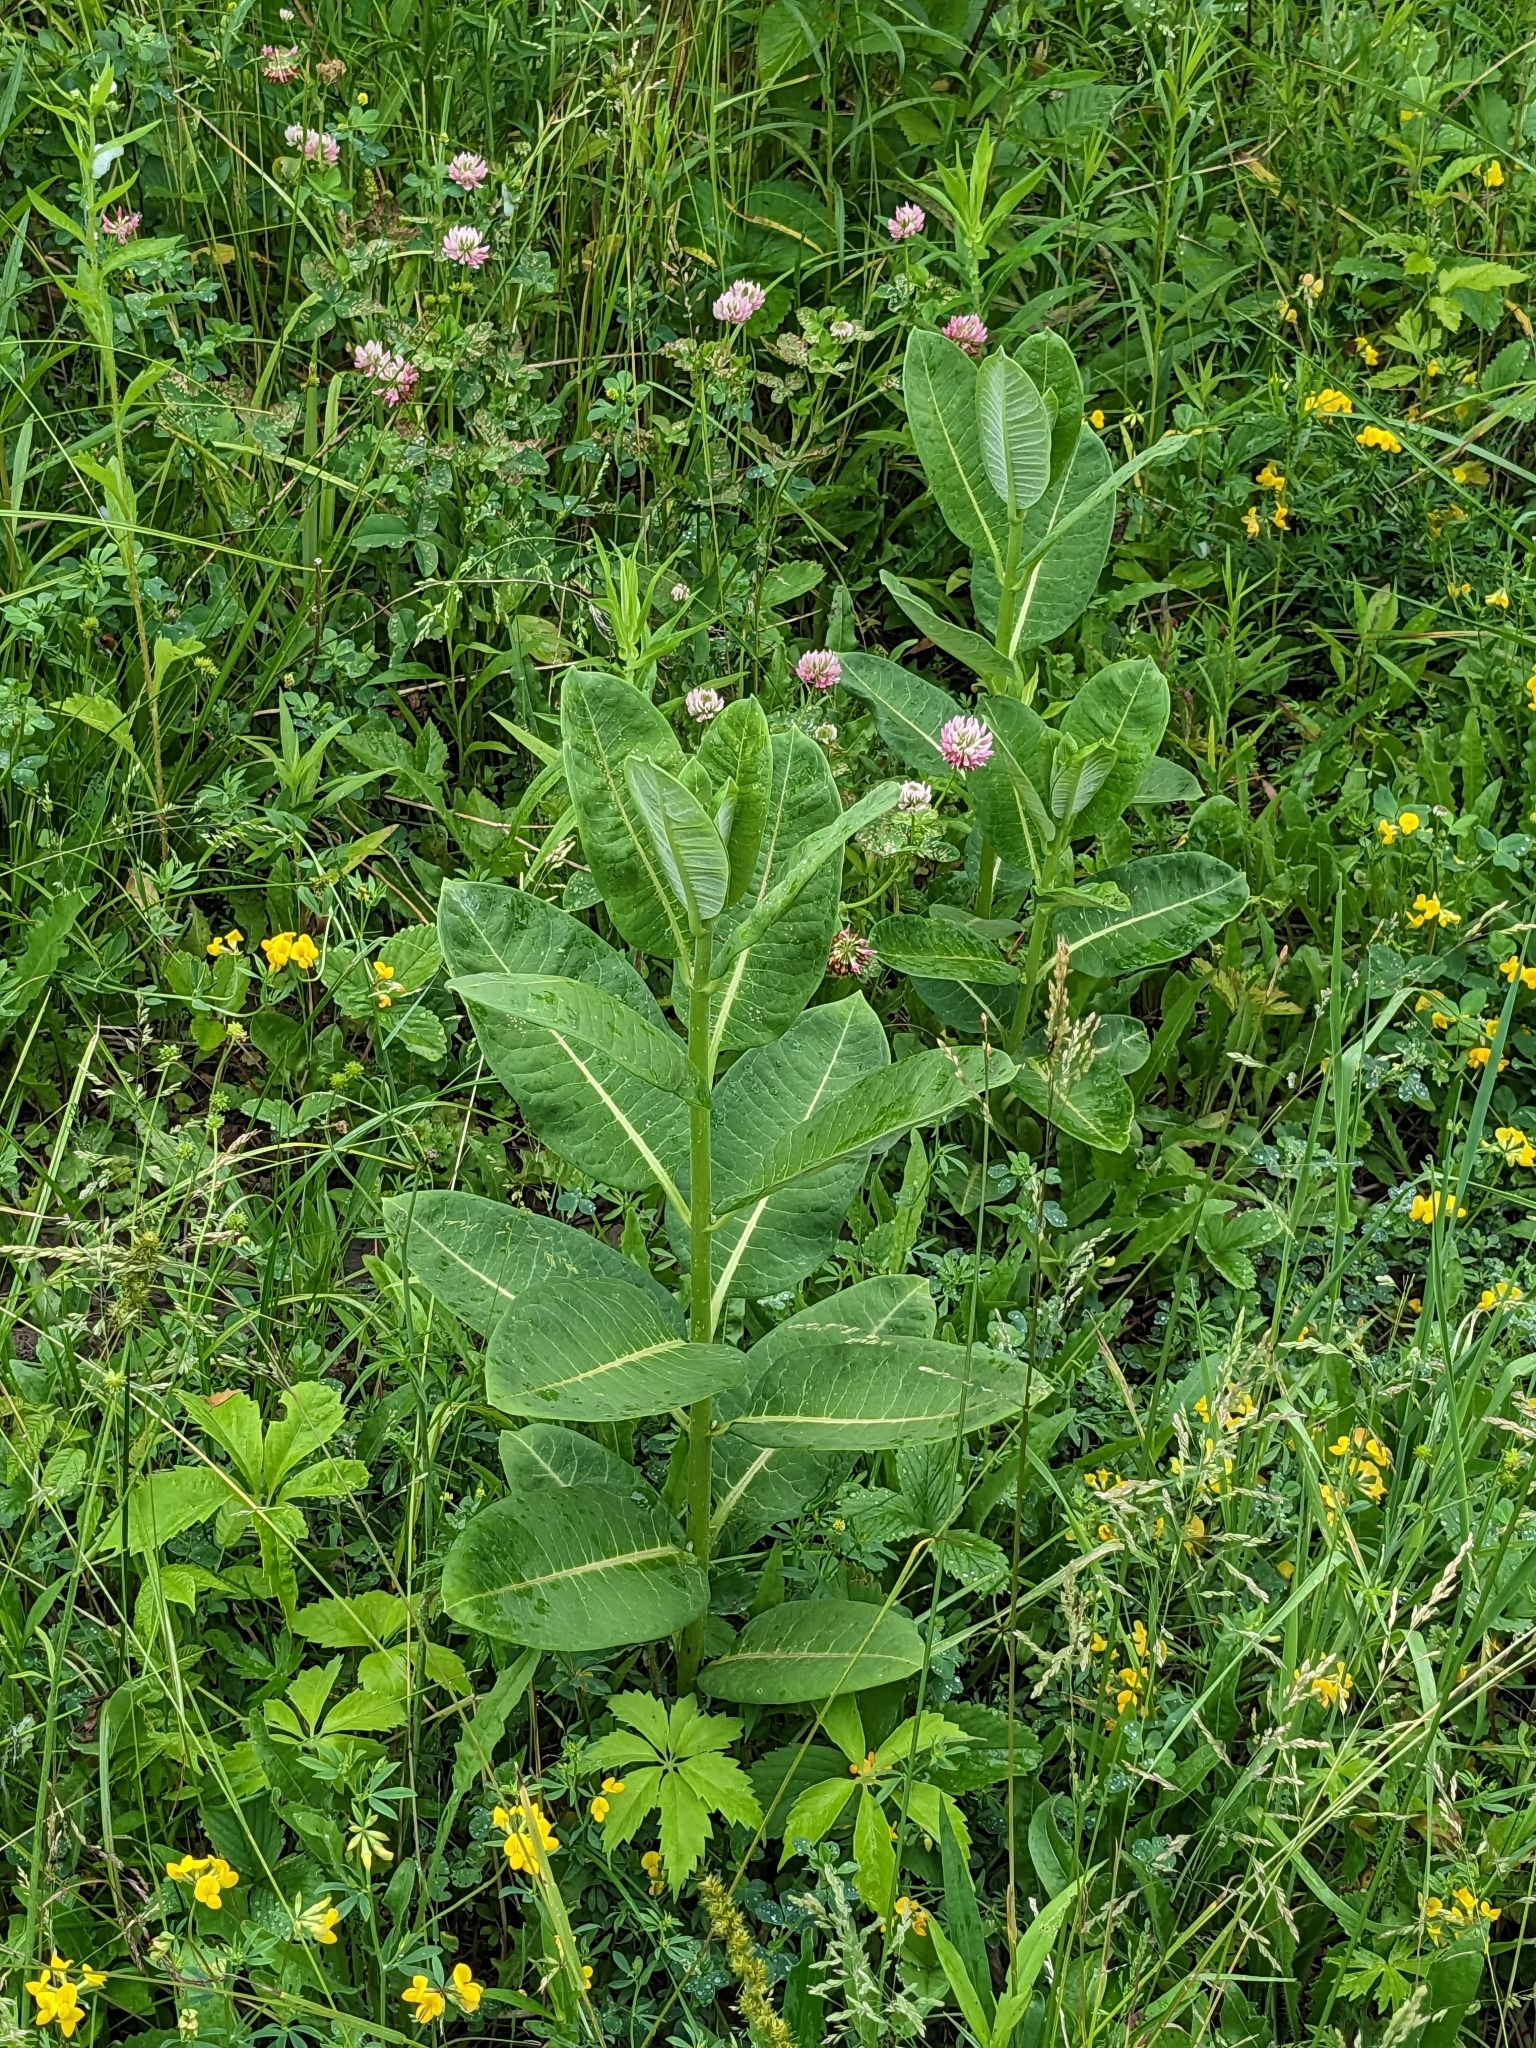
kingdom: Plantae
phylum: Tracheophyta
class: Magnoliopsida
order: Gentianales
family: Apocynaceae
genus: Asclepias
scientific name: Asclepias syriaca
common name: Common milkweed
